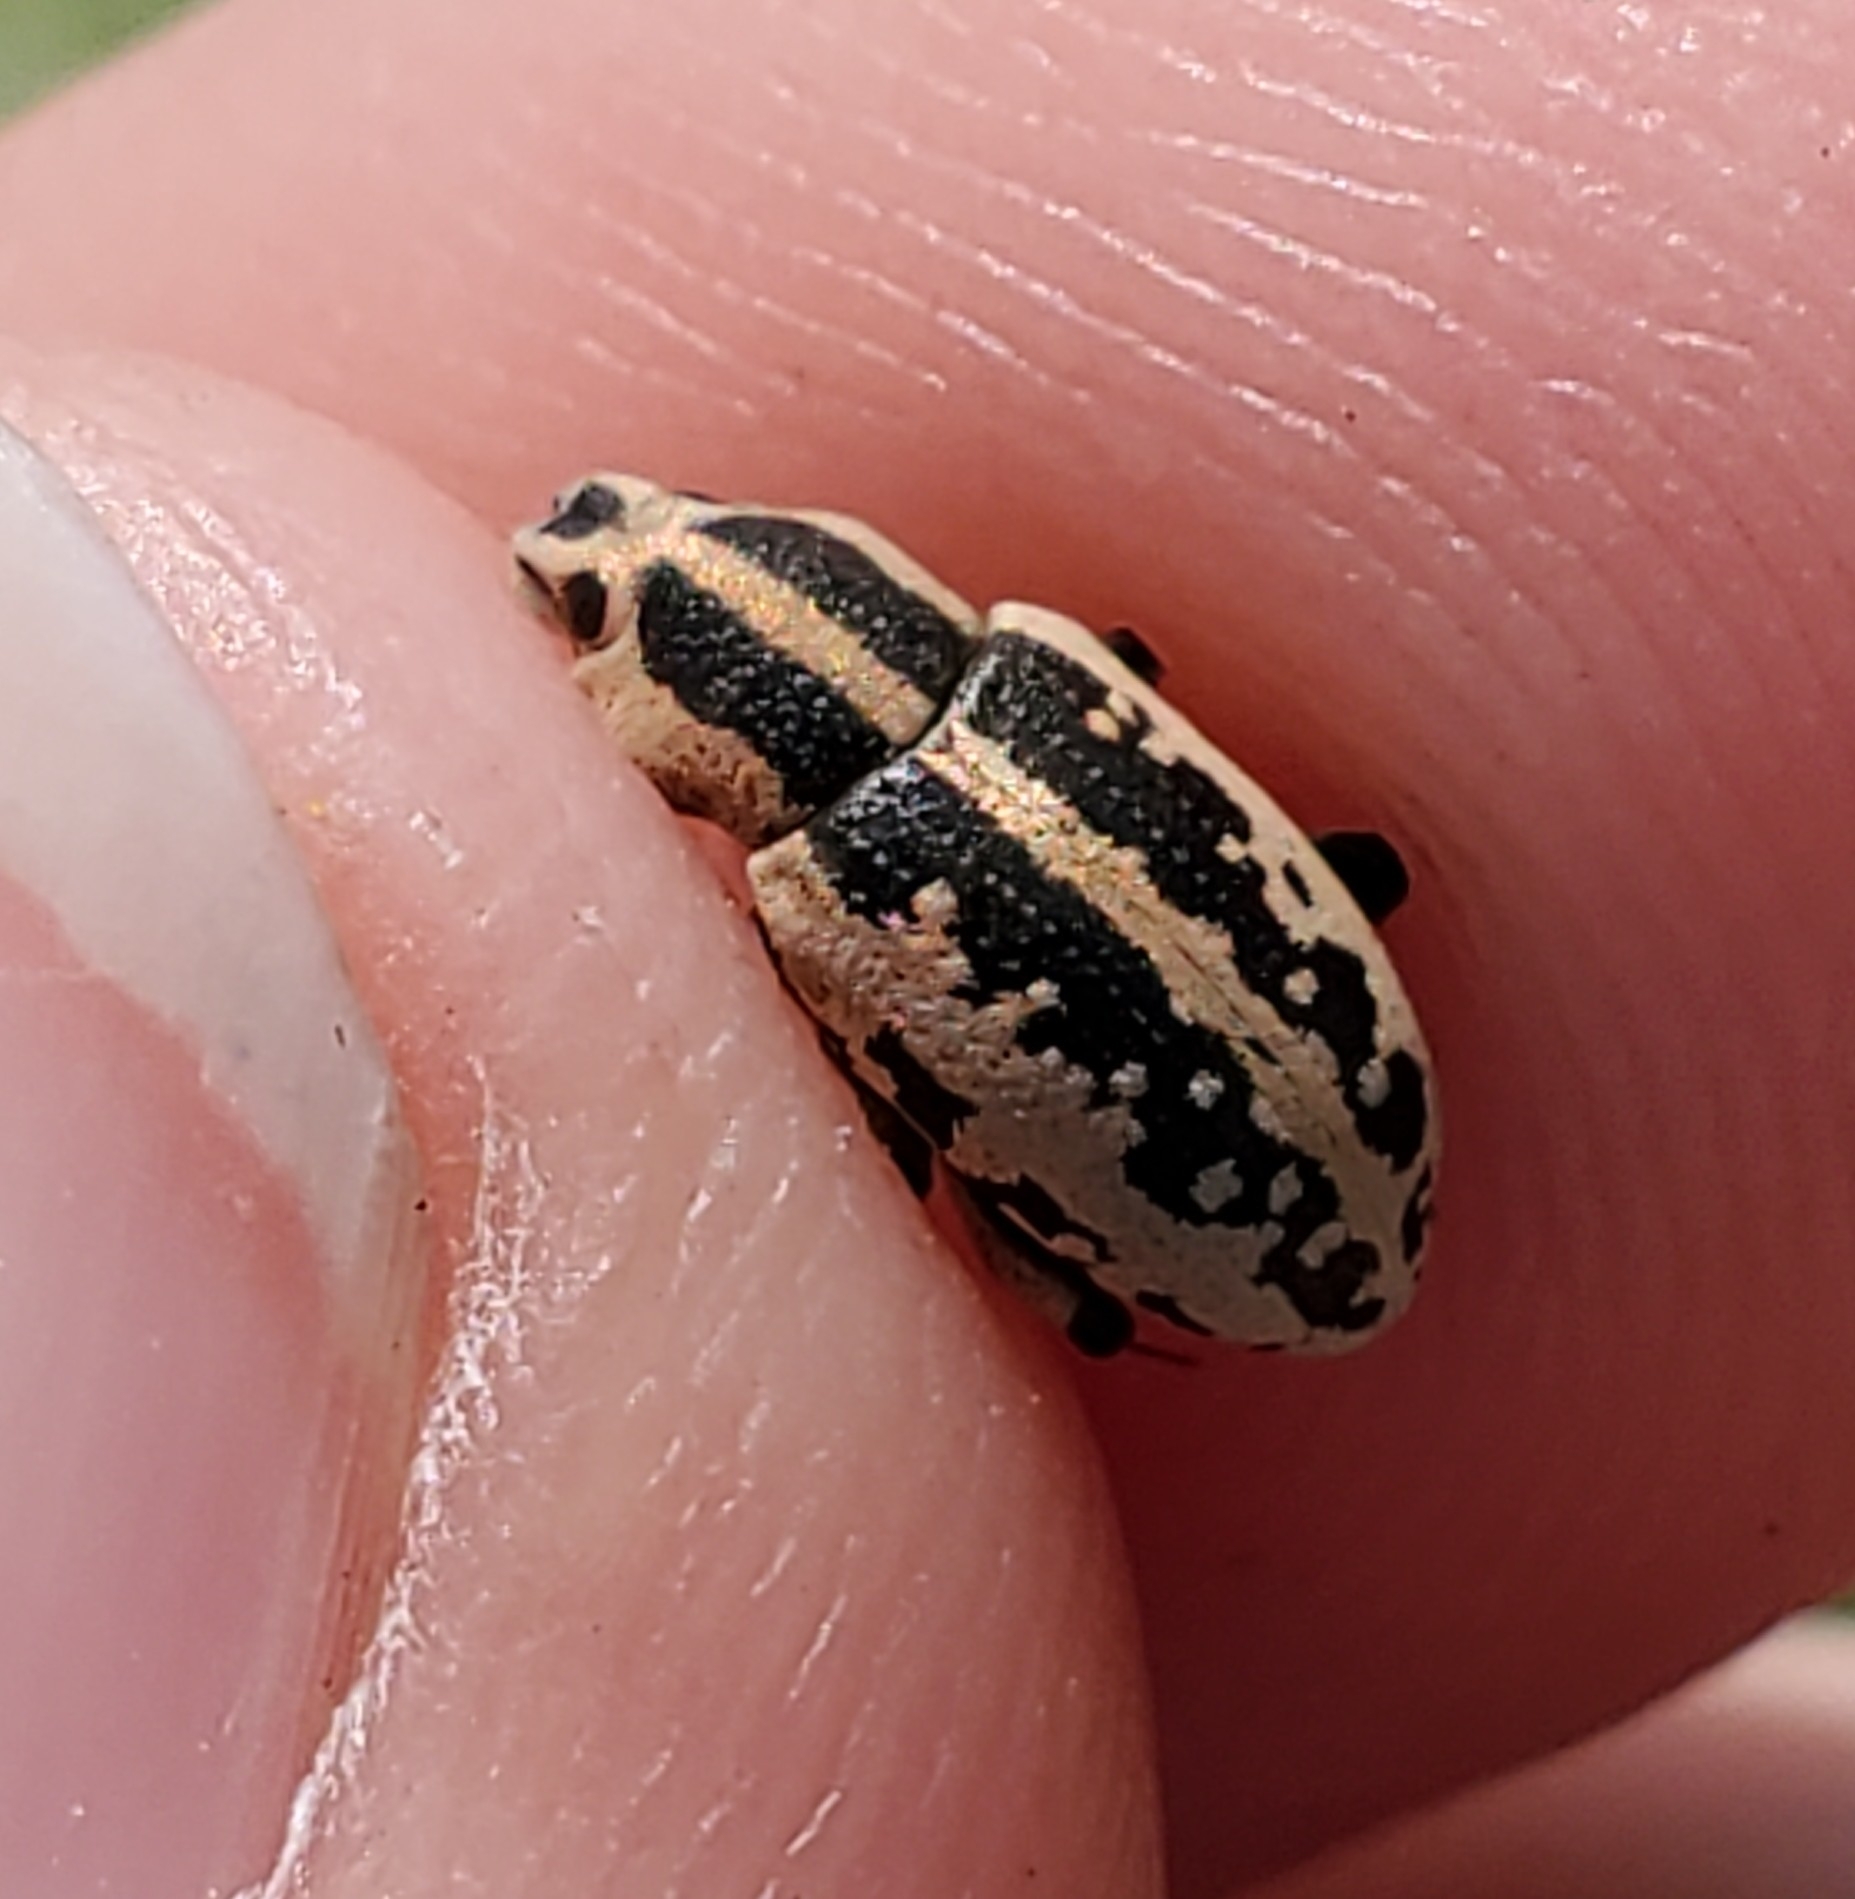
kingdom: Animalia
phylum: Arthropoda
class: Insecta
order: Coleoptera
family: Curculionidae
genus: Eudiagogus
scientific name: Eudiagogus rosenschoeldi
